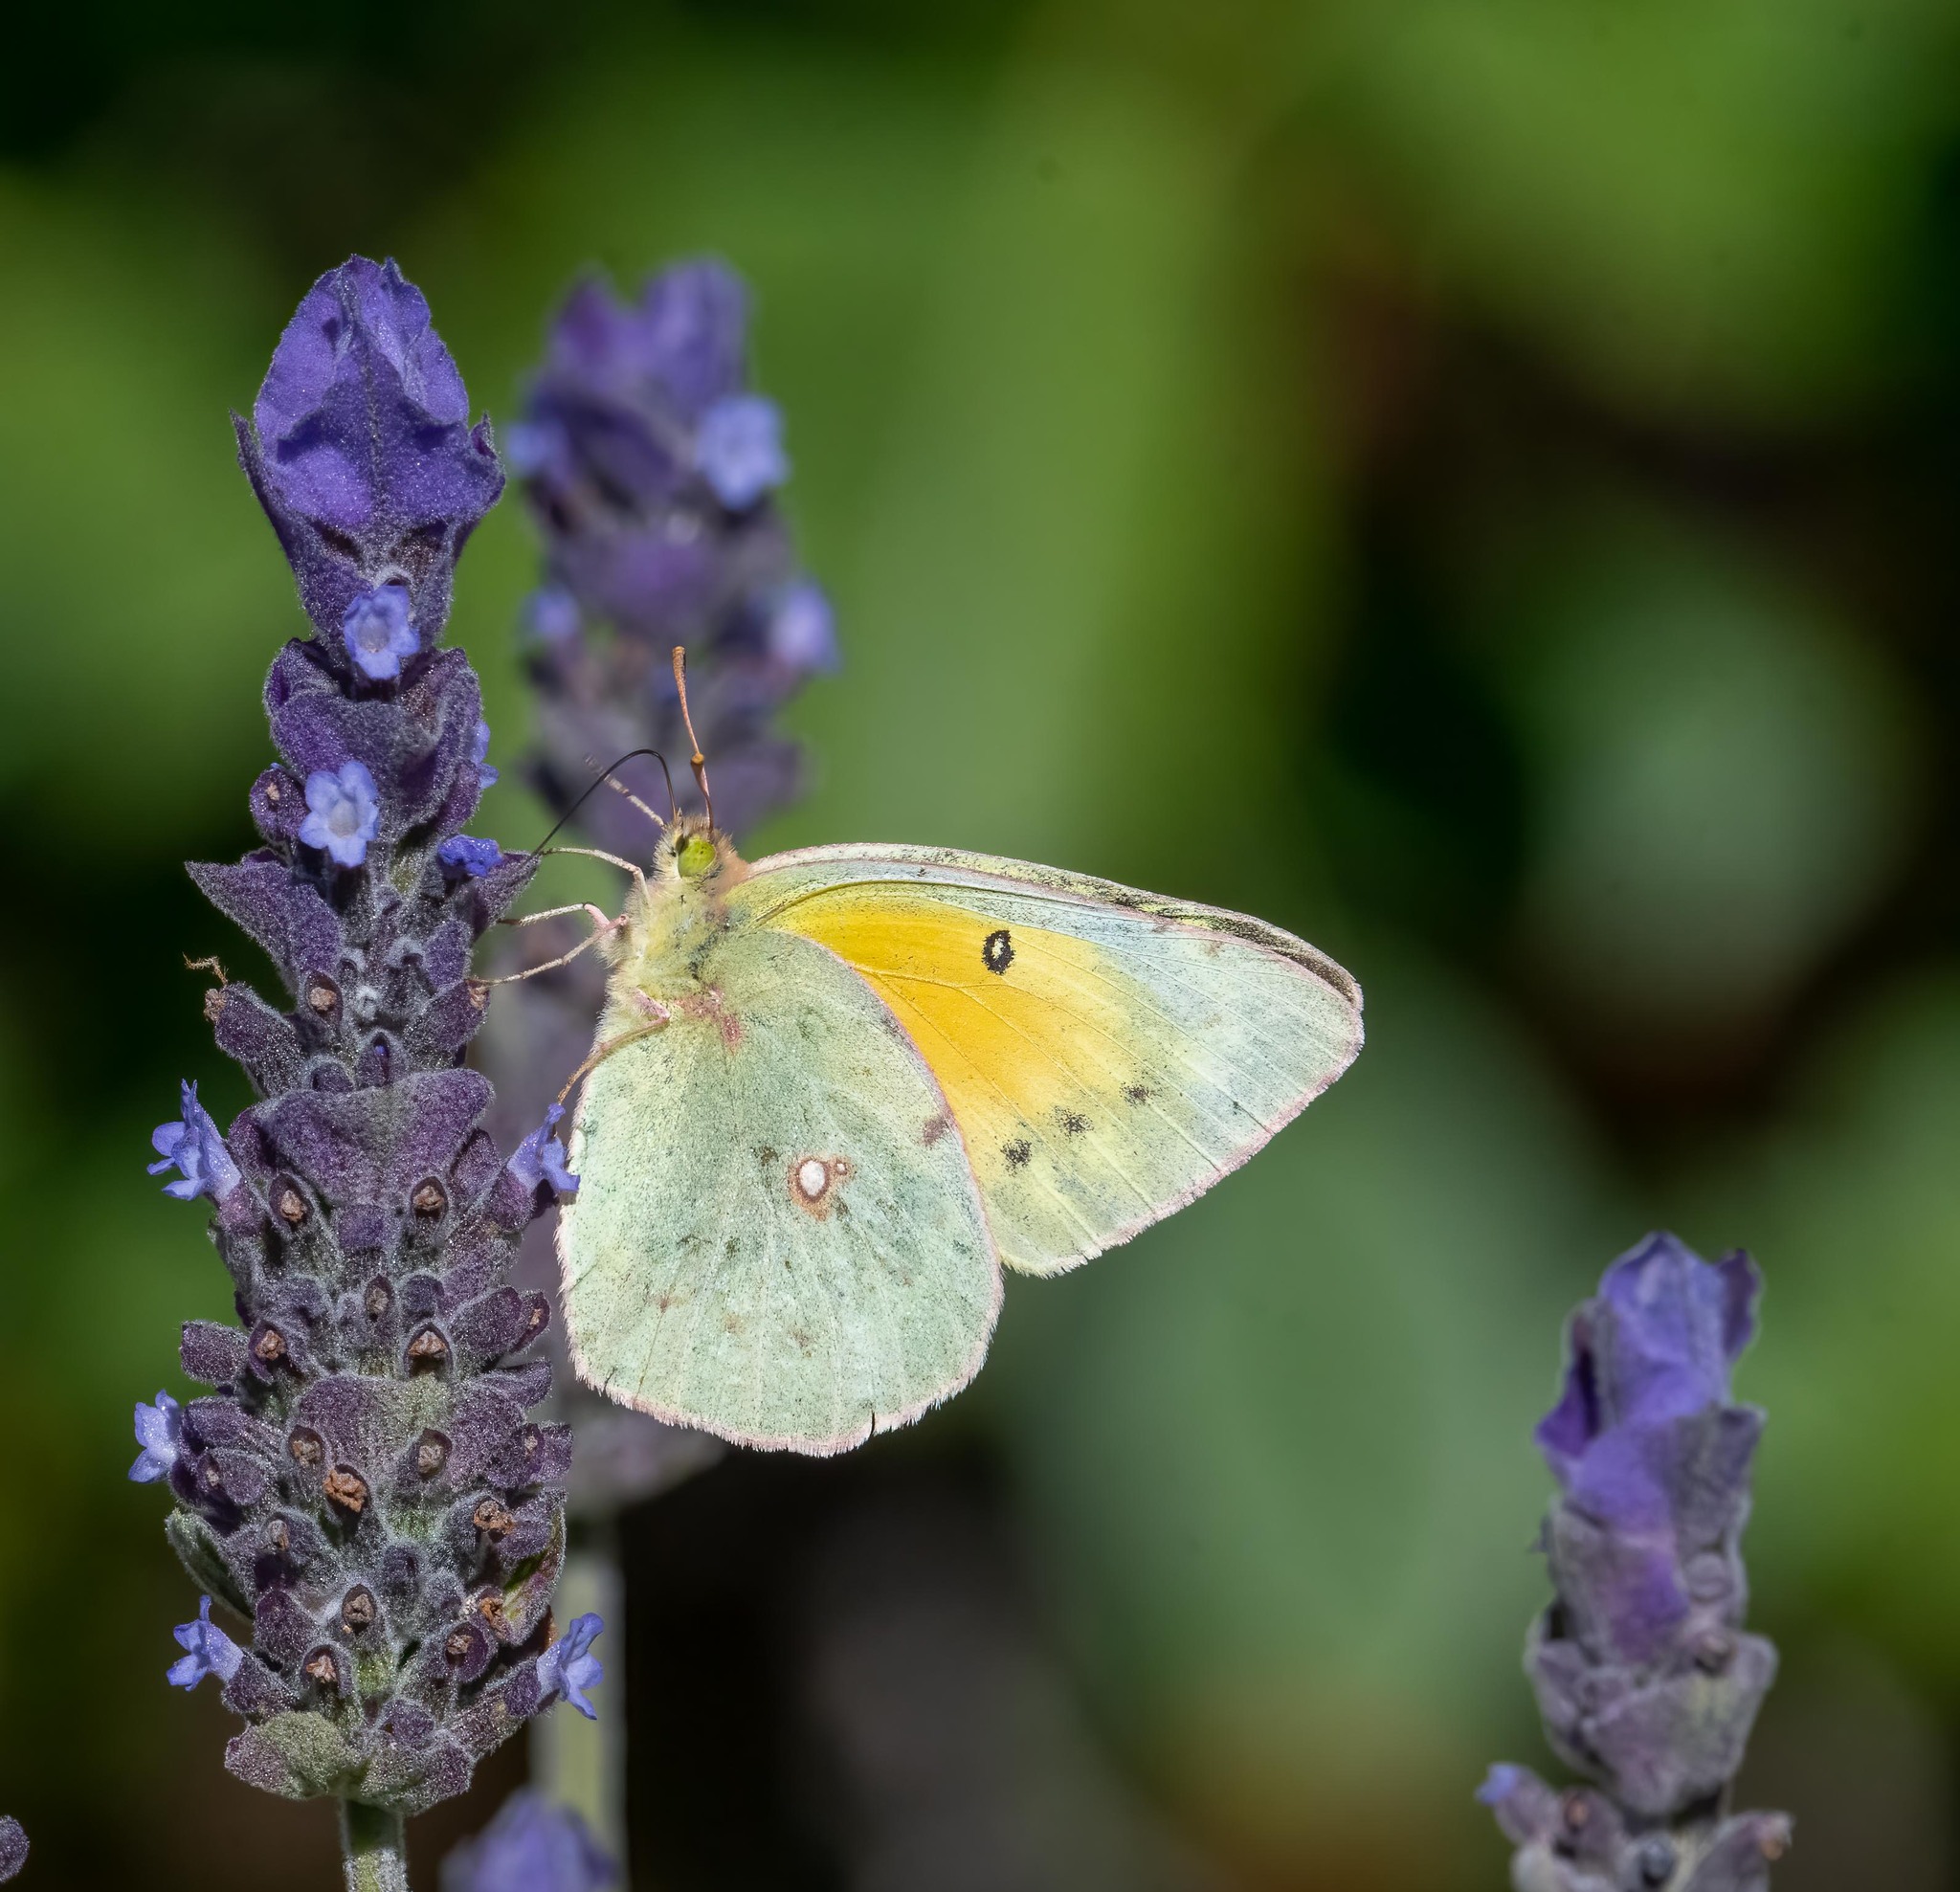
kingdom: Animalia
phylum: Arthropoda
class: Insecta
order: Lepidoptera
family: Pieridae
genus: Colias
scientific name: Colias eurytheme
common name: Alfalfa butterfly
